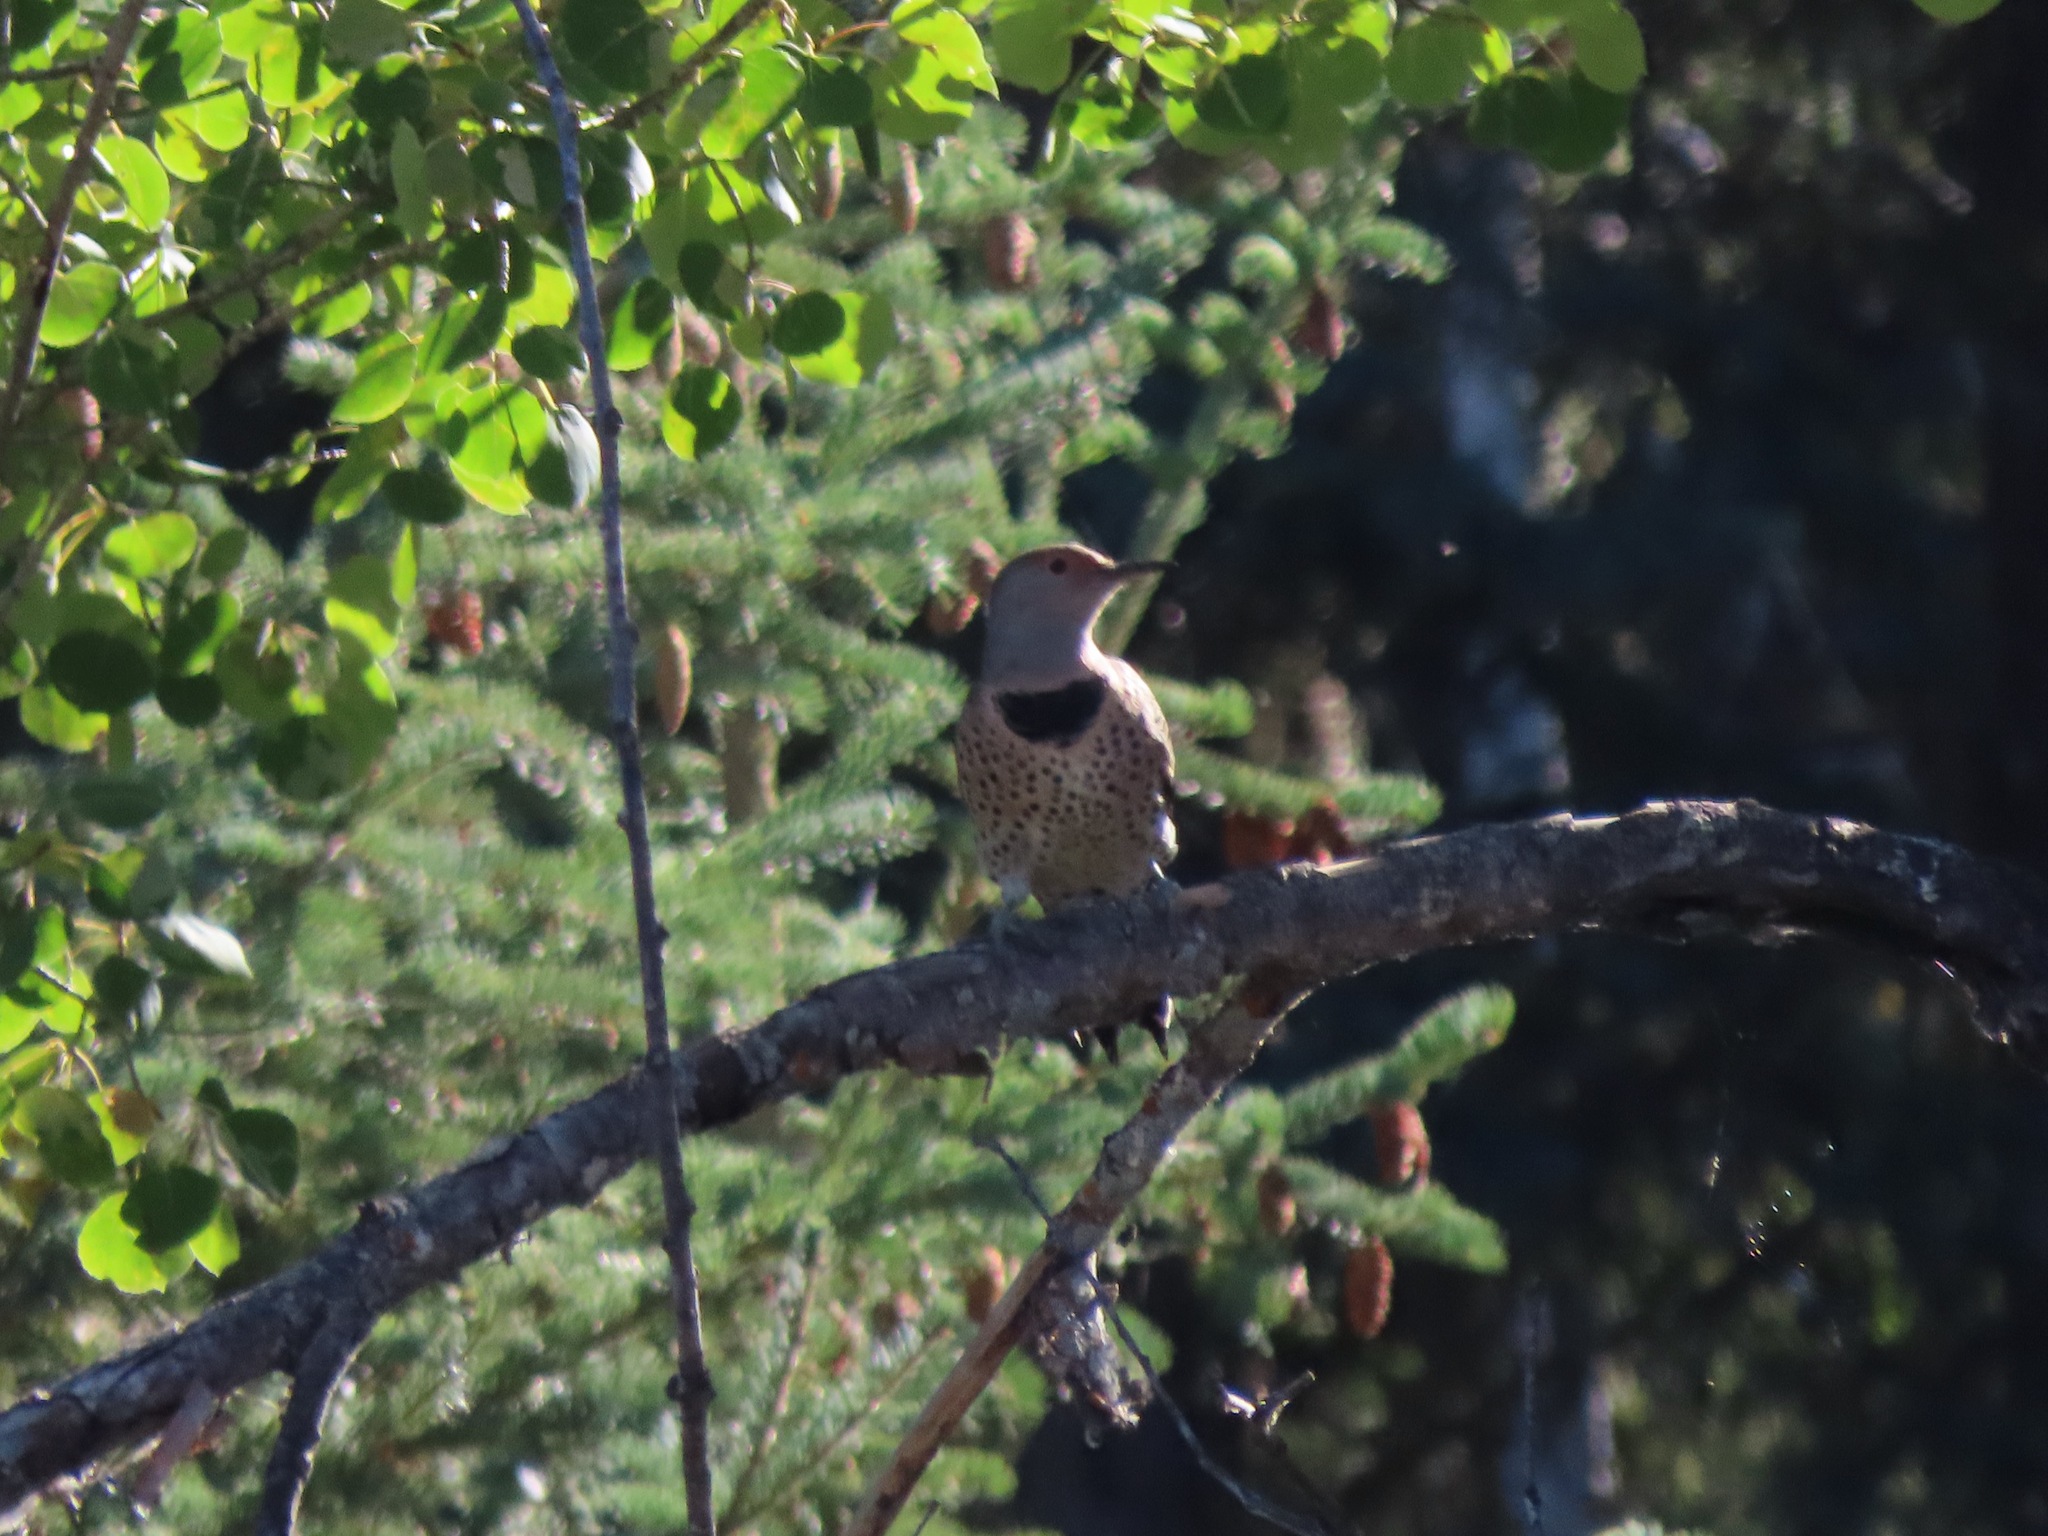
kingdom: Animalia
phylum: Chordata
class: Aves
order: Piciformes
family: Picidae
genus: Colaptes
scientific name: Colaptes auratus
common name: Northern flicker
